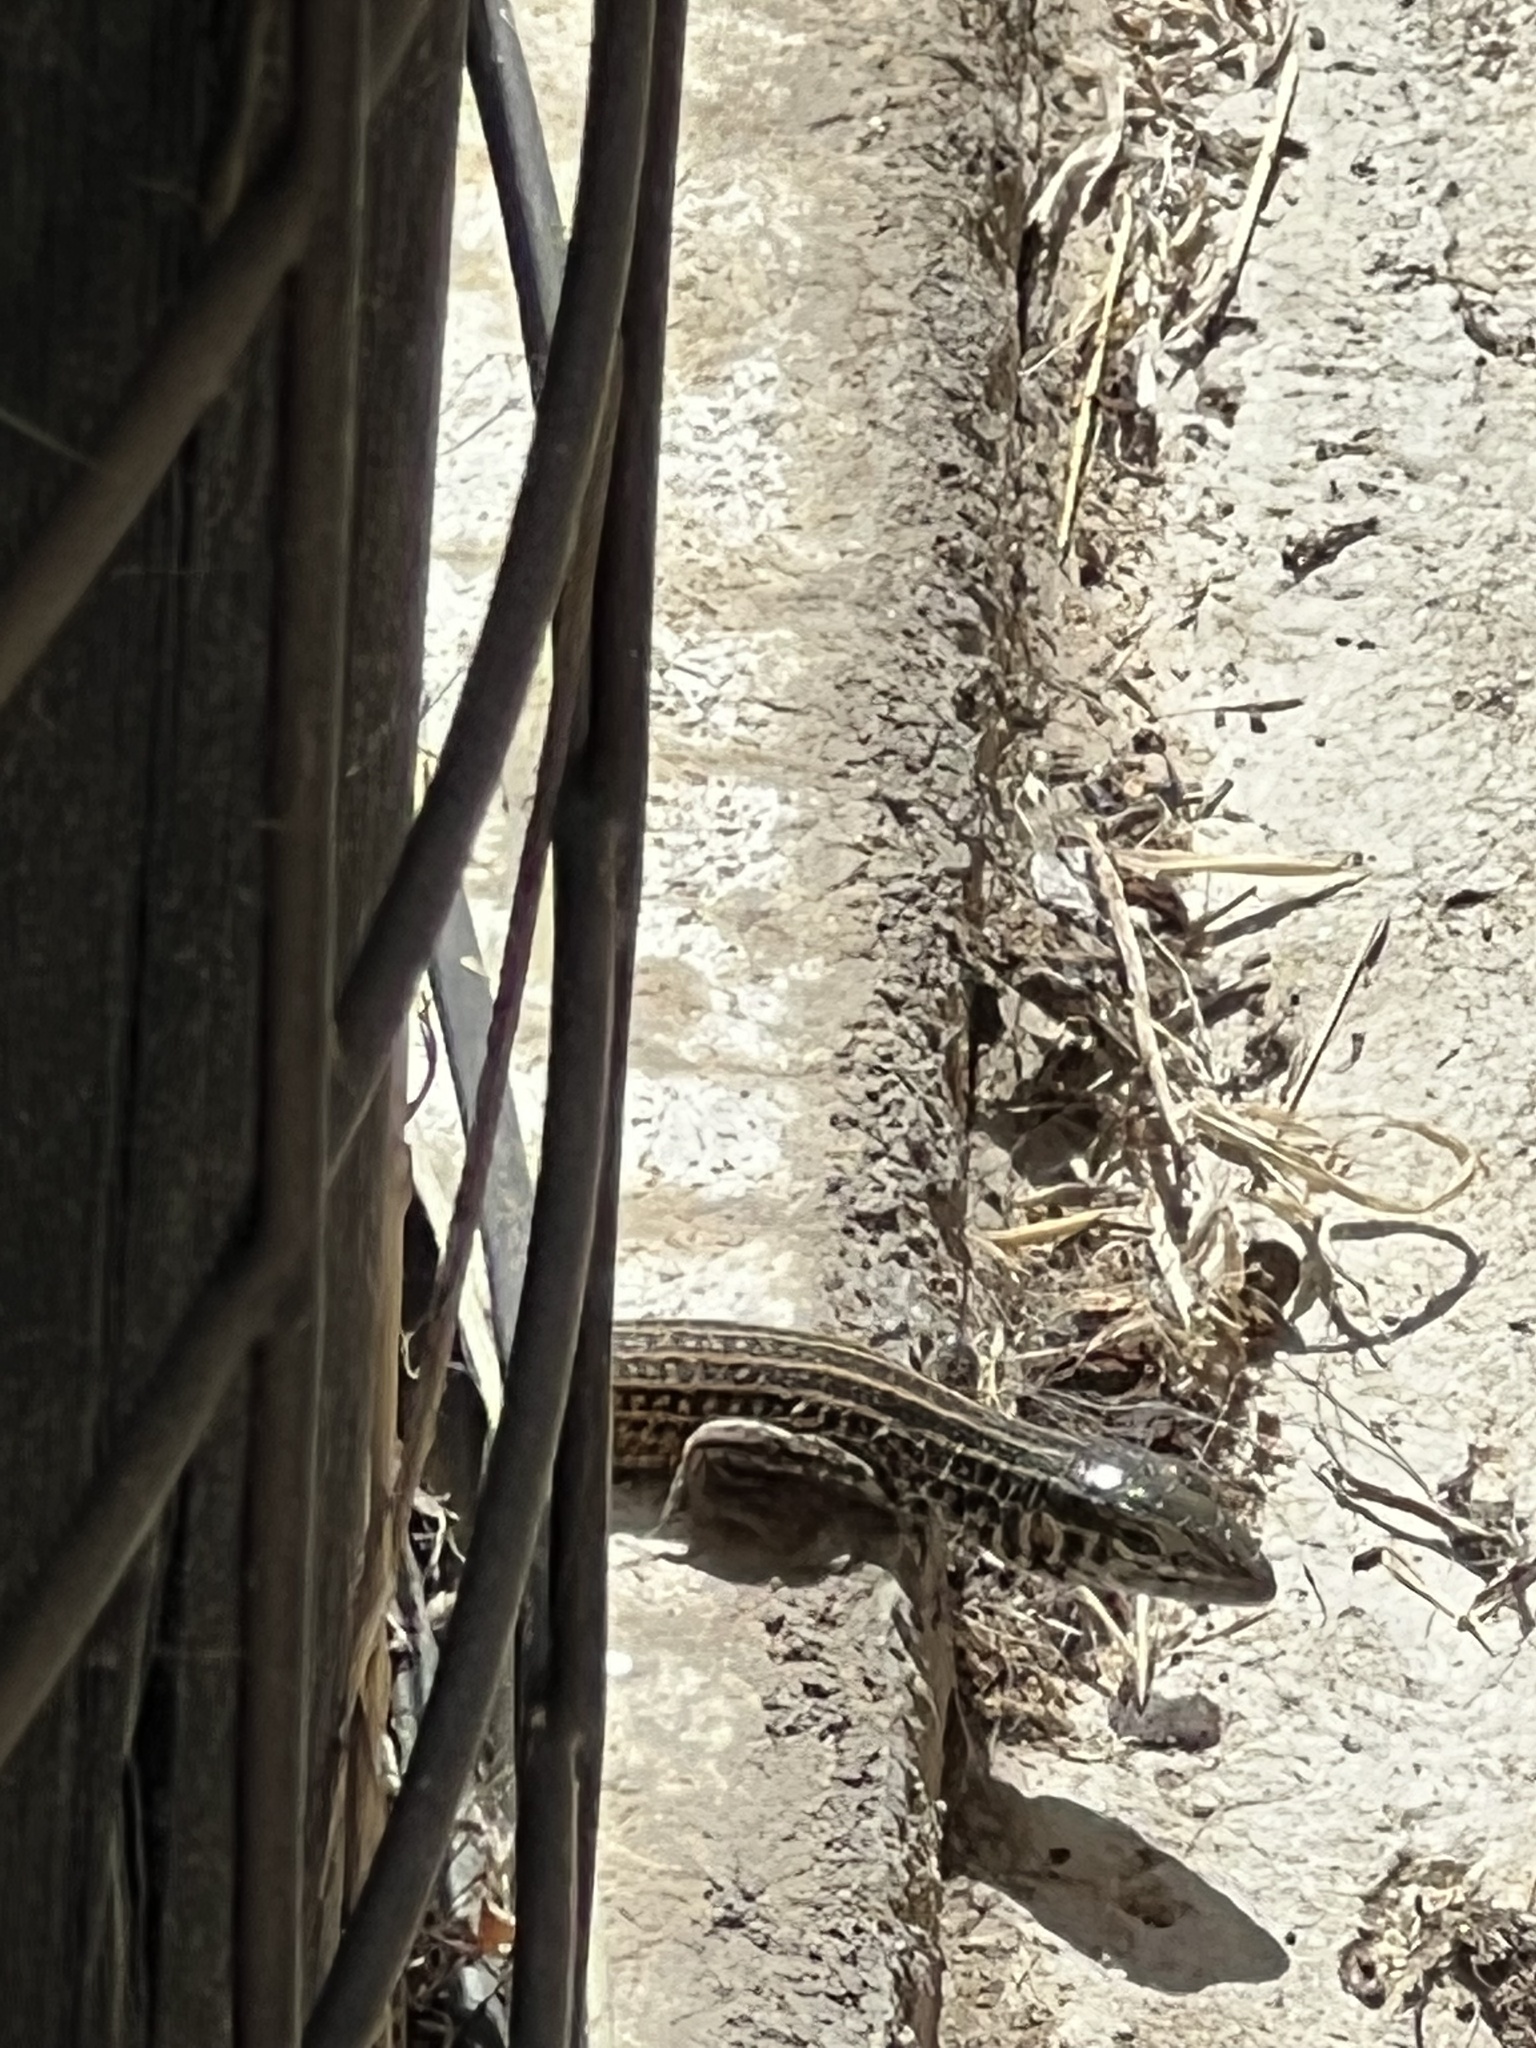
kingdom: Animalia
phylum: Chordata
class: Squamata
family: Teiidae
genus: Aspidoscelis
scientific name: Aspidoscelis tigris
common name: Tiger whiptail
